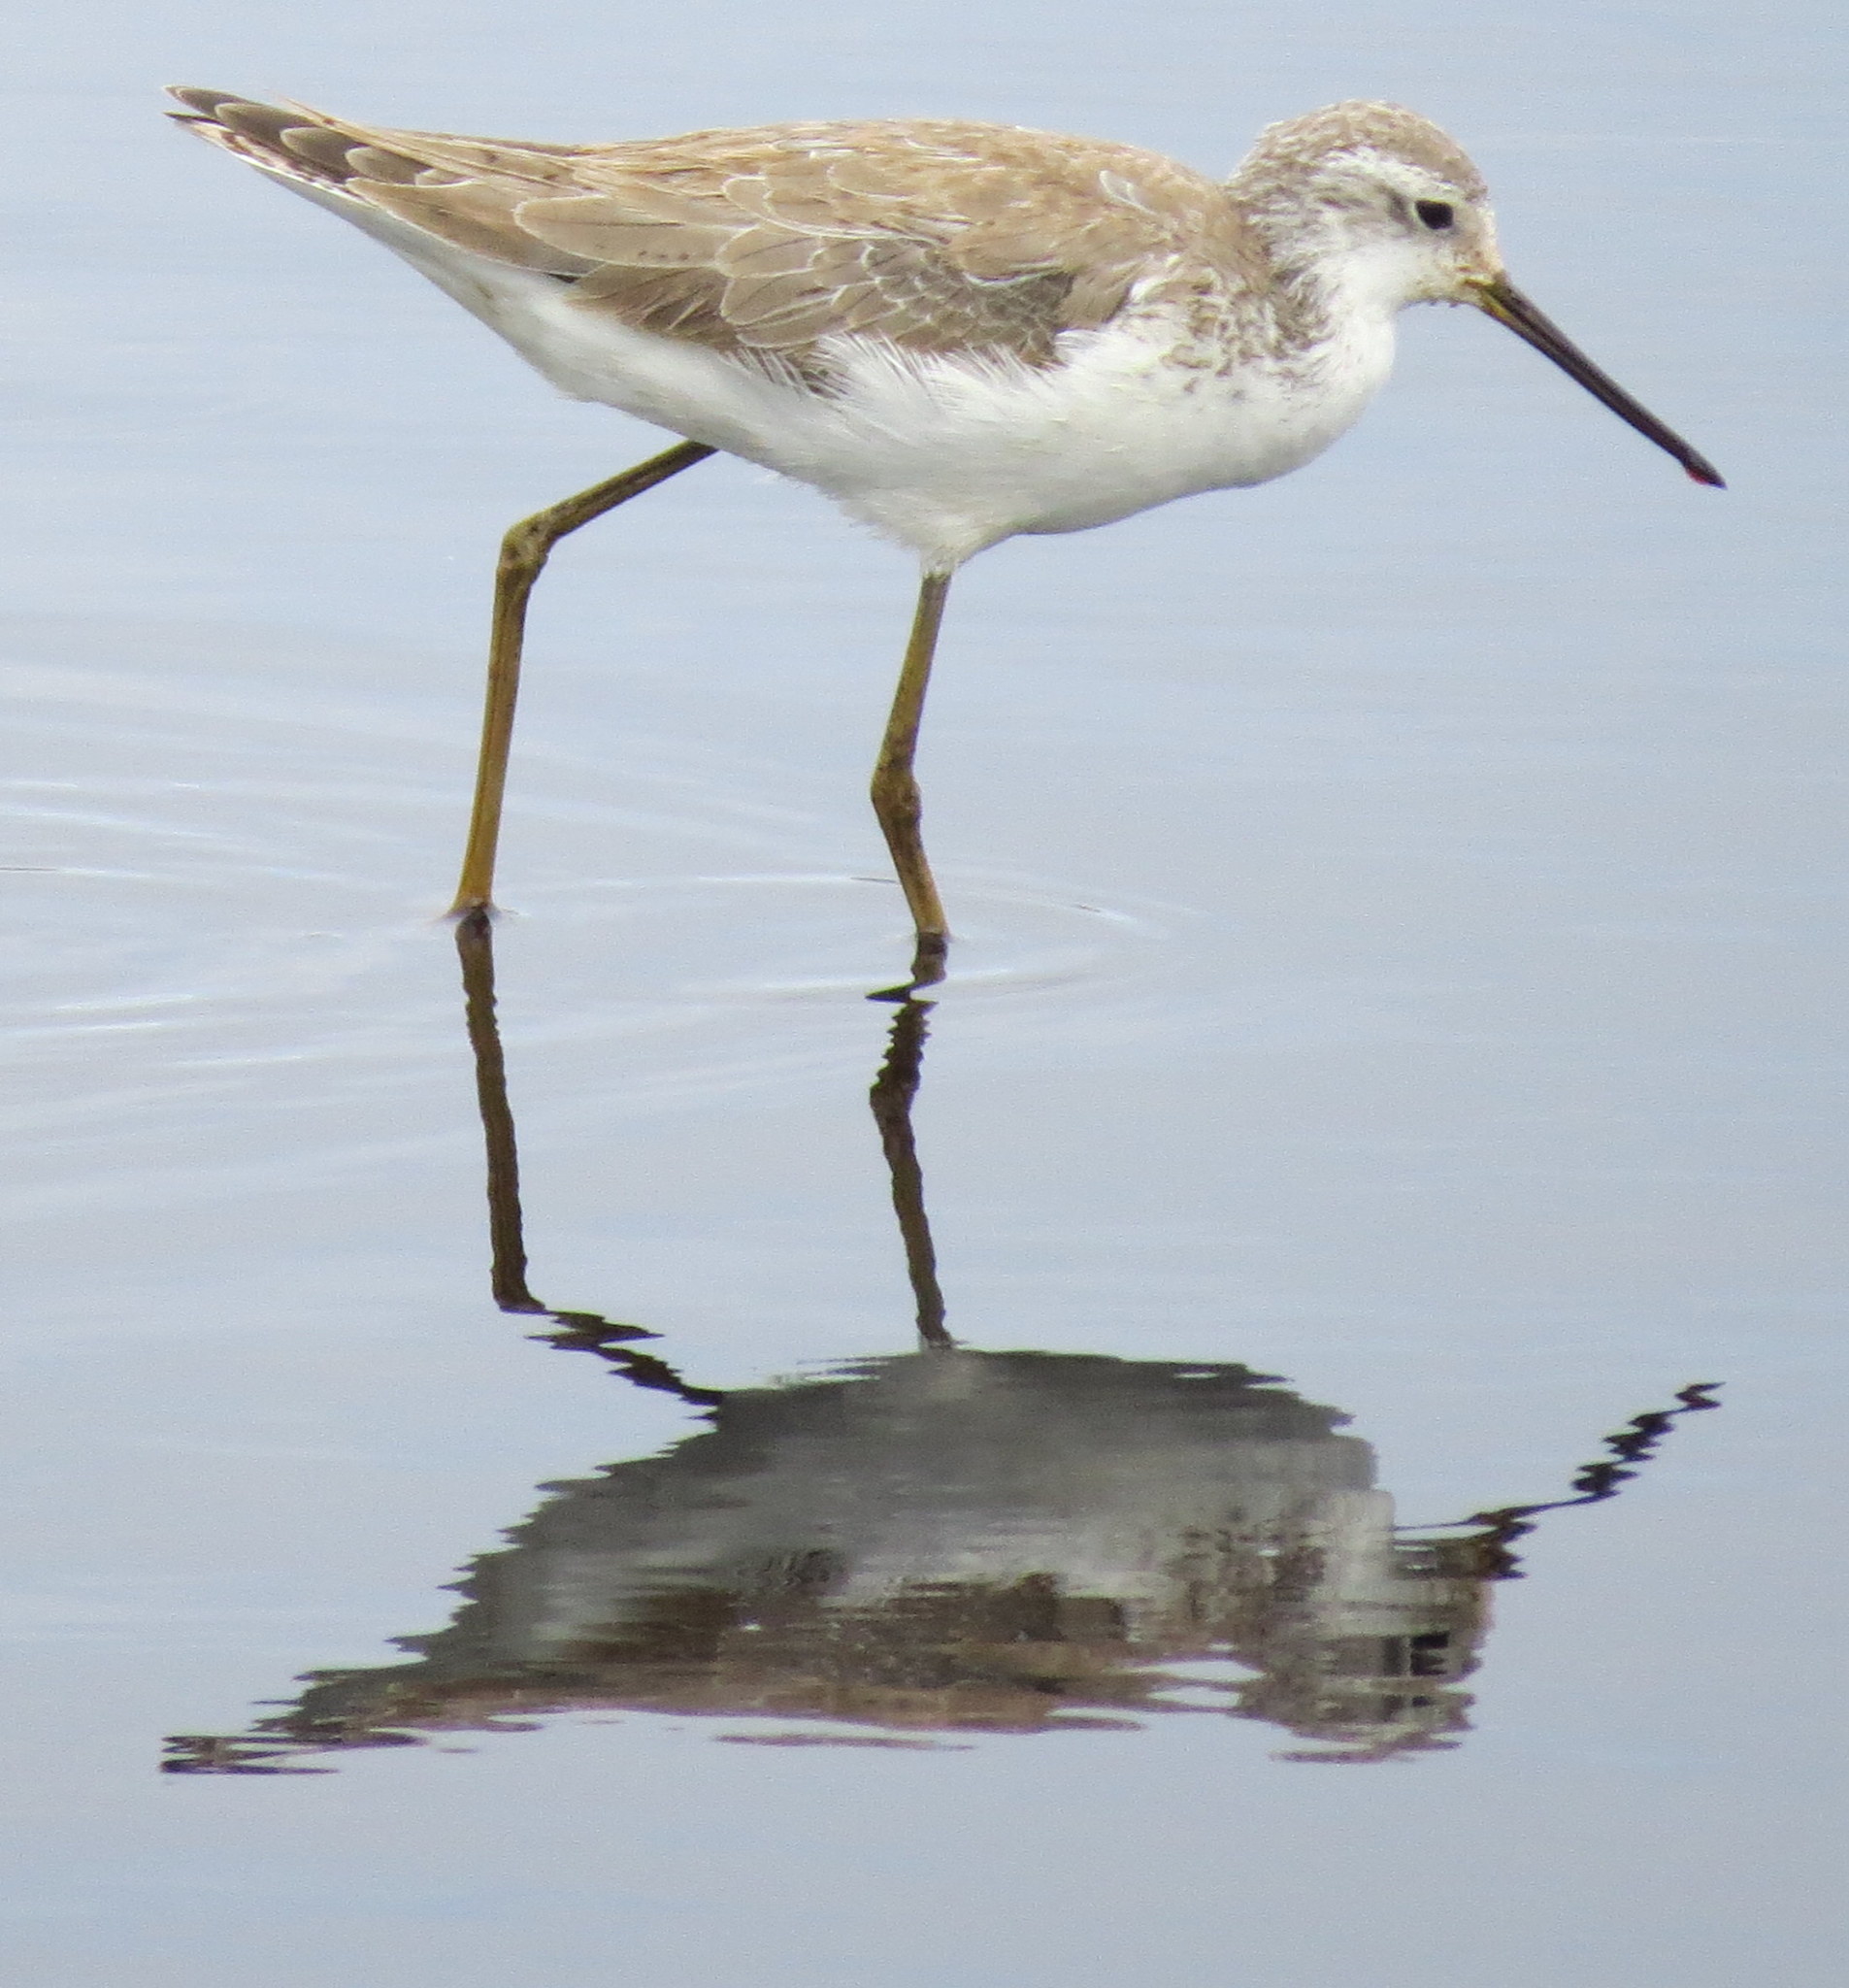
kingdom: Animalia
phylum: Chordata
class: Aves
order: Charadriiformes
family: Scolopacidae
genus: Tringa
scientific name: Tringa stagnatilis
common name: Marsh sandpiper
